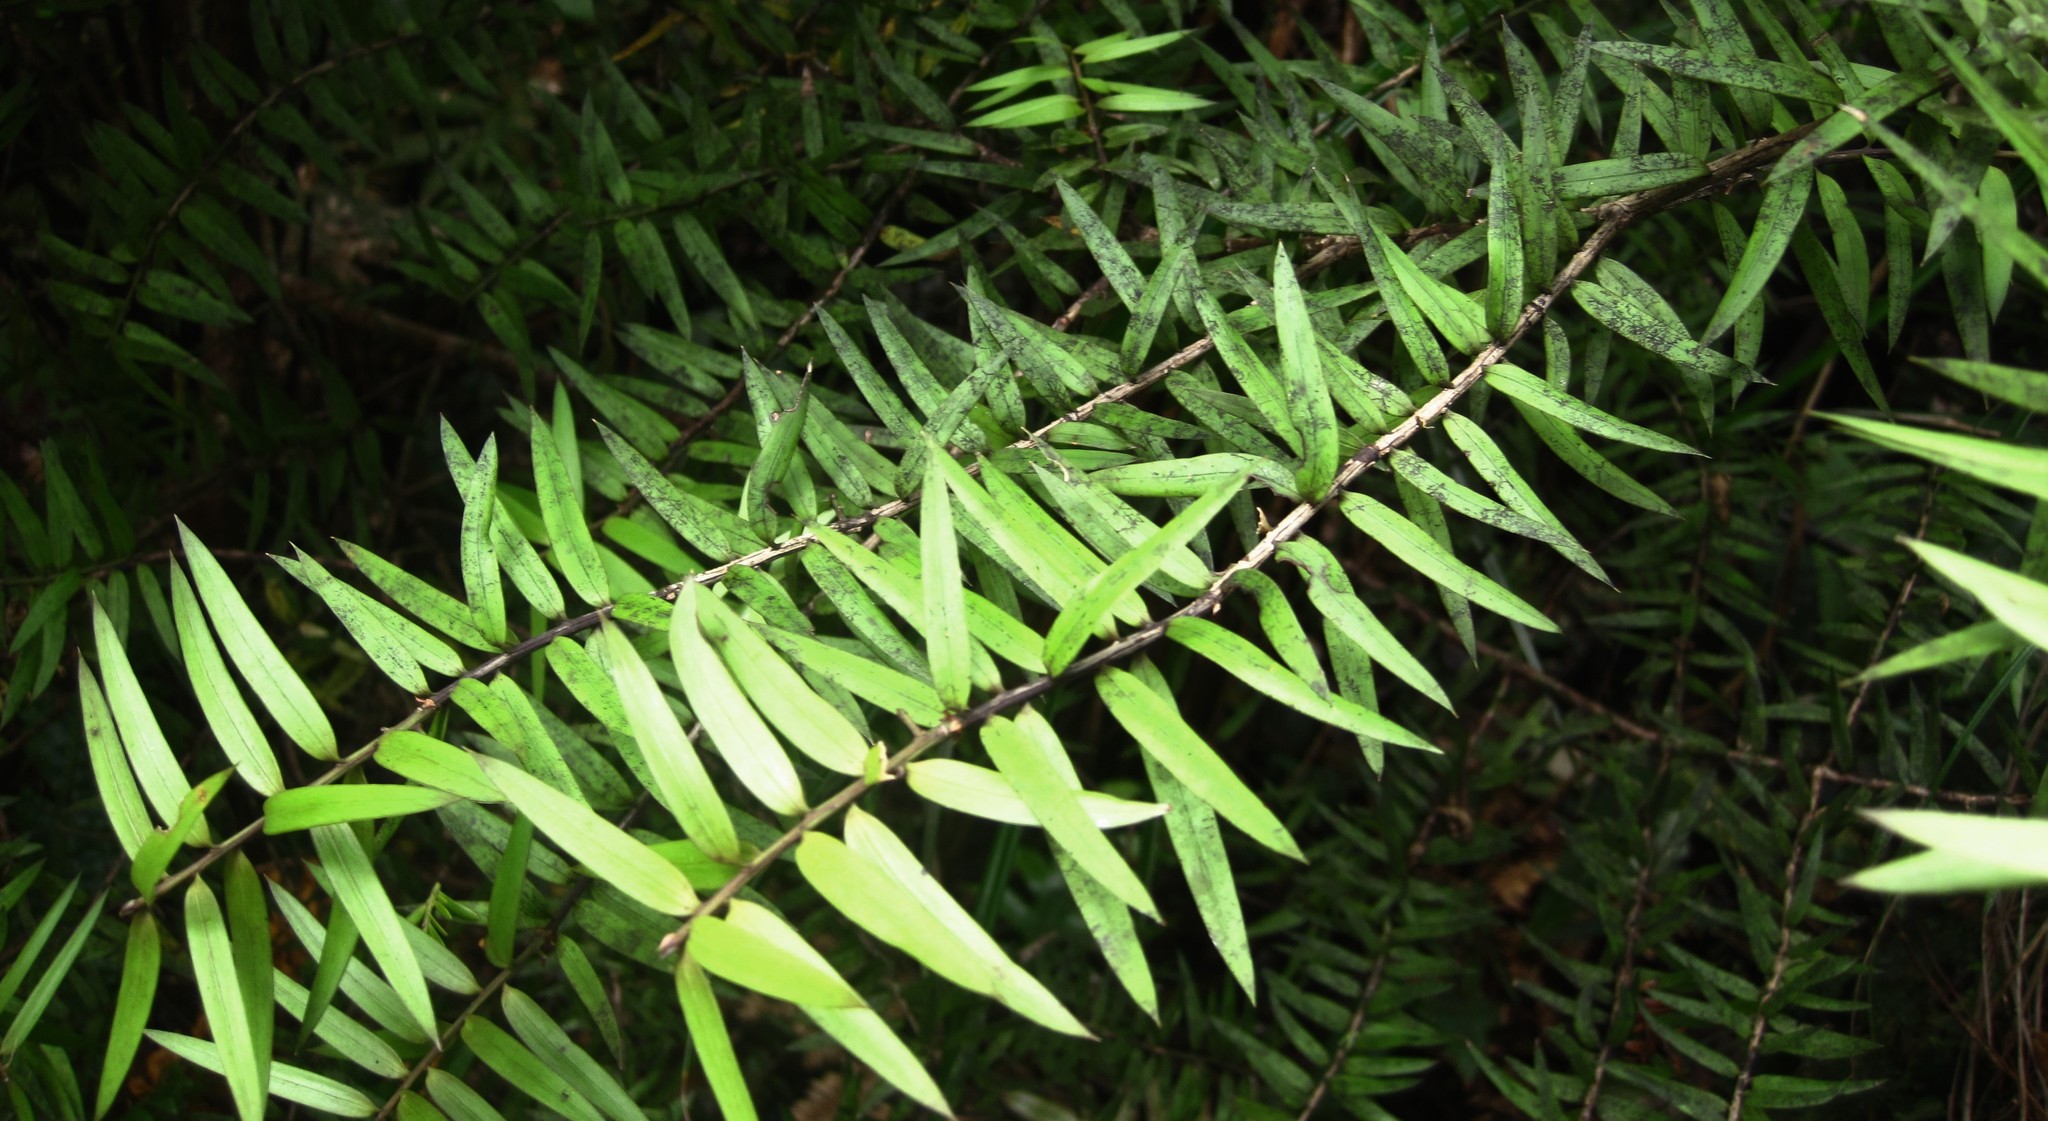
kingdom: Plantae
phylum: Tracheophyta
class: Pinopsida
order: Pinales
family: Podocarpaceae
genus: Podocarpus
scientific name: Podocarpus laetus
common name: Hall's totara
